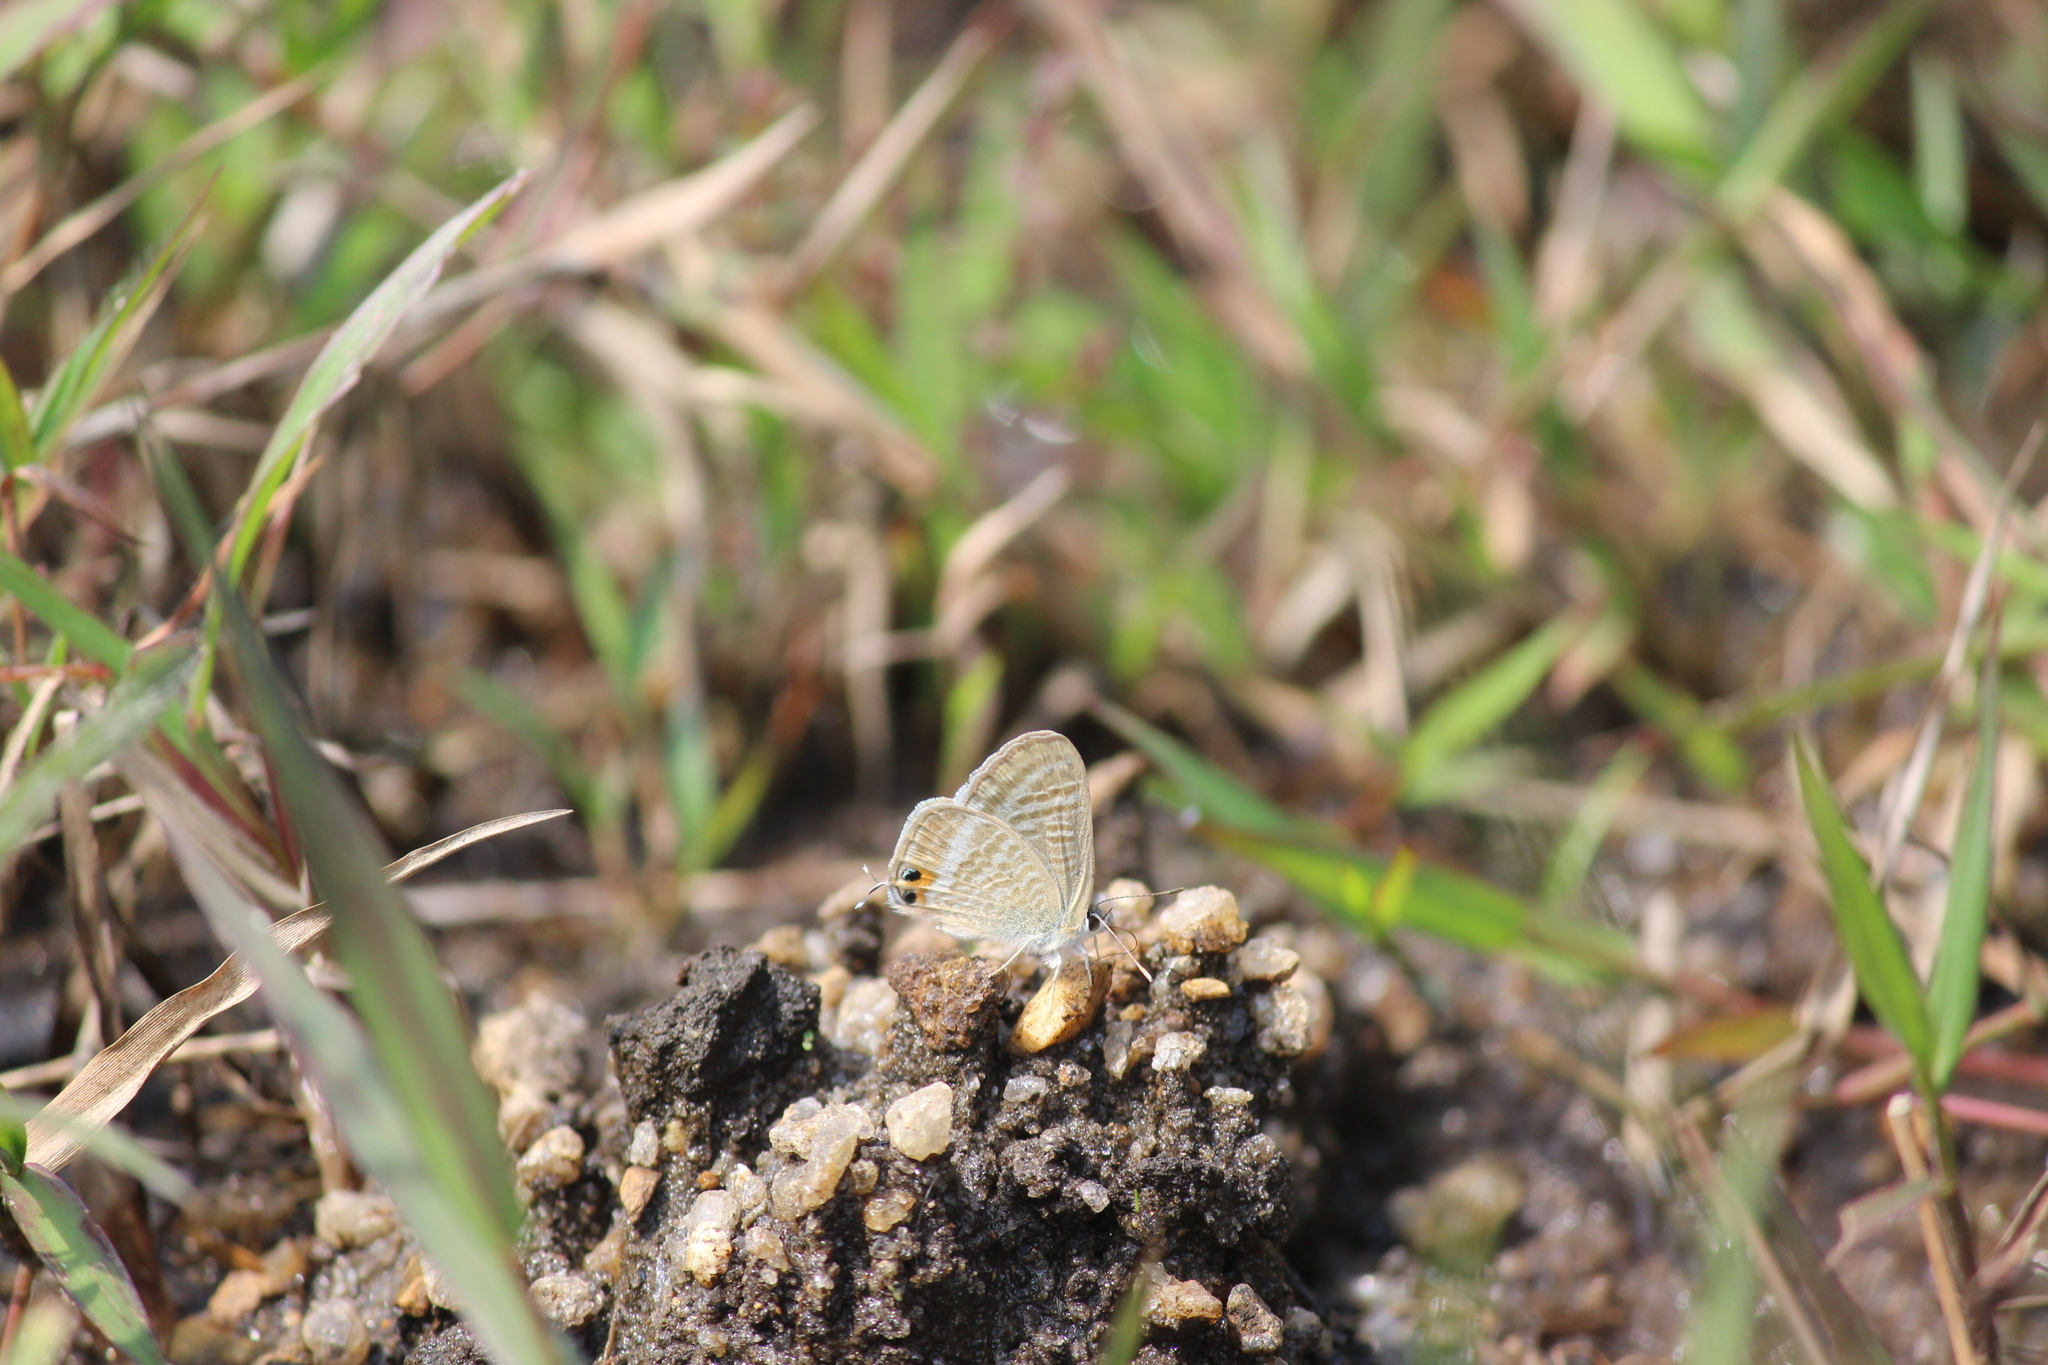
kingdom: Animalia
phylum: Arthropoda
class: Insecta
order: Lepidoptera
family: Lycaenidae
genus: Lampides
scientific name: Lampides boeticus
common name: Long-tailed blue
